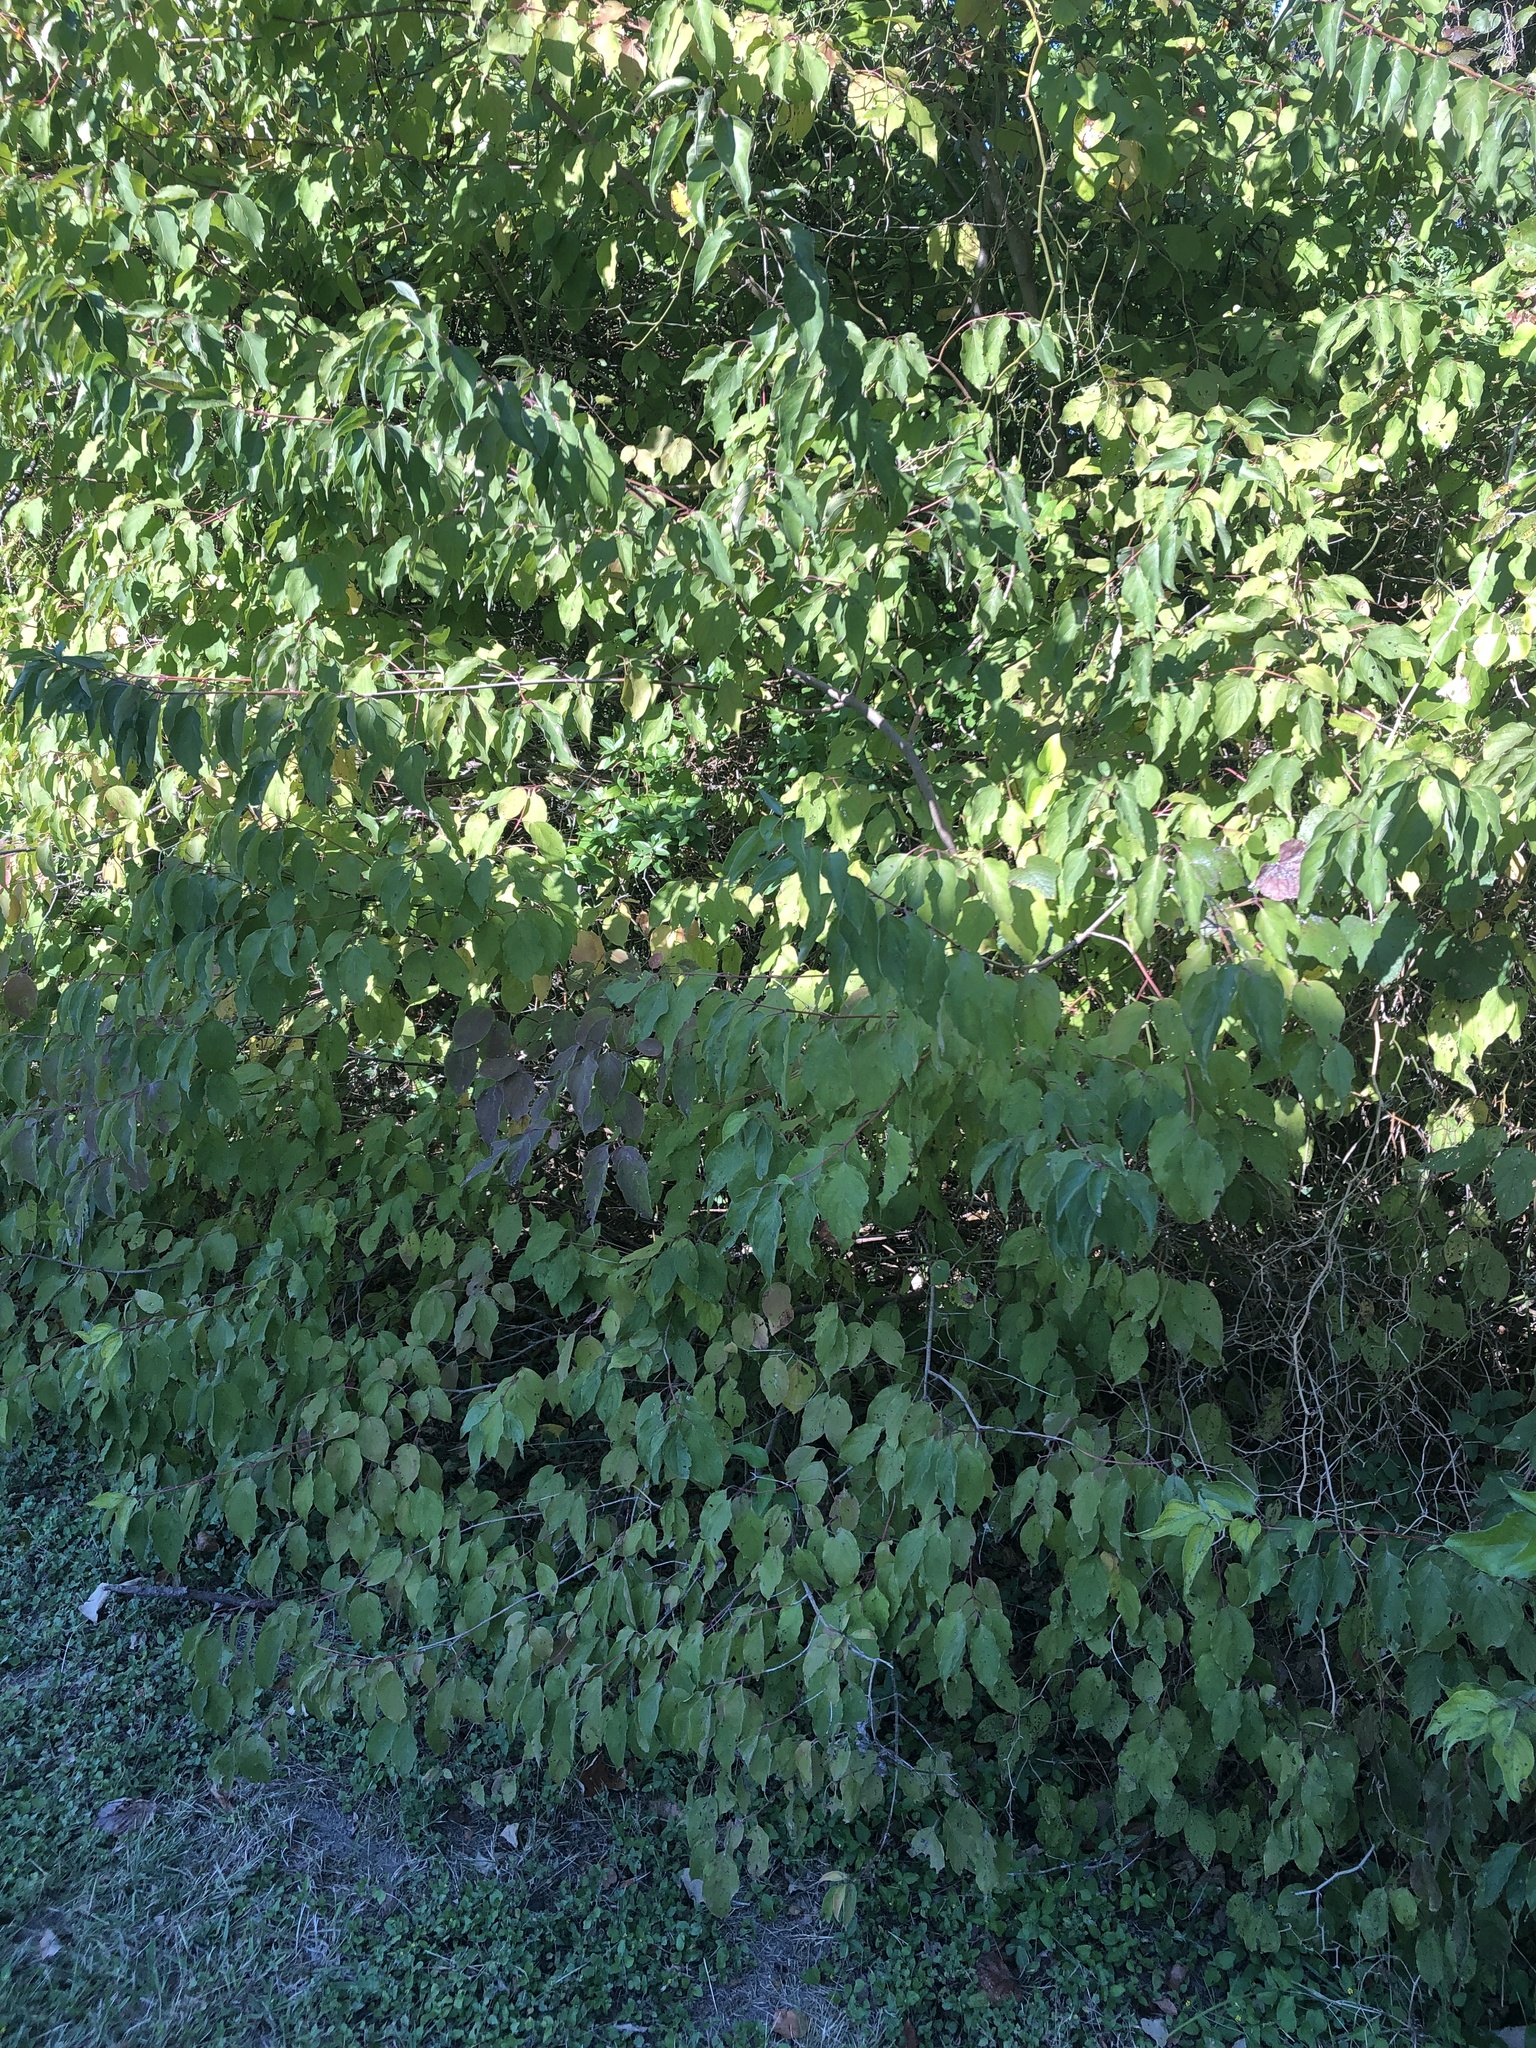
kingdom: Plantae
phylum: Tracheophyta
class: Magnoliopsida
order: Cornales
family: Cornaceae
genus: Cornus
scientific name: Cornus drummondii
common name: Rough-leaf dogwood
